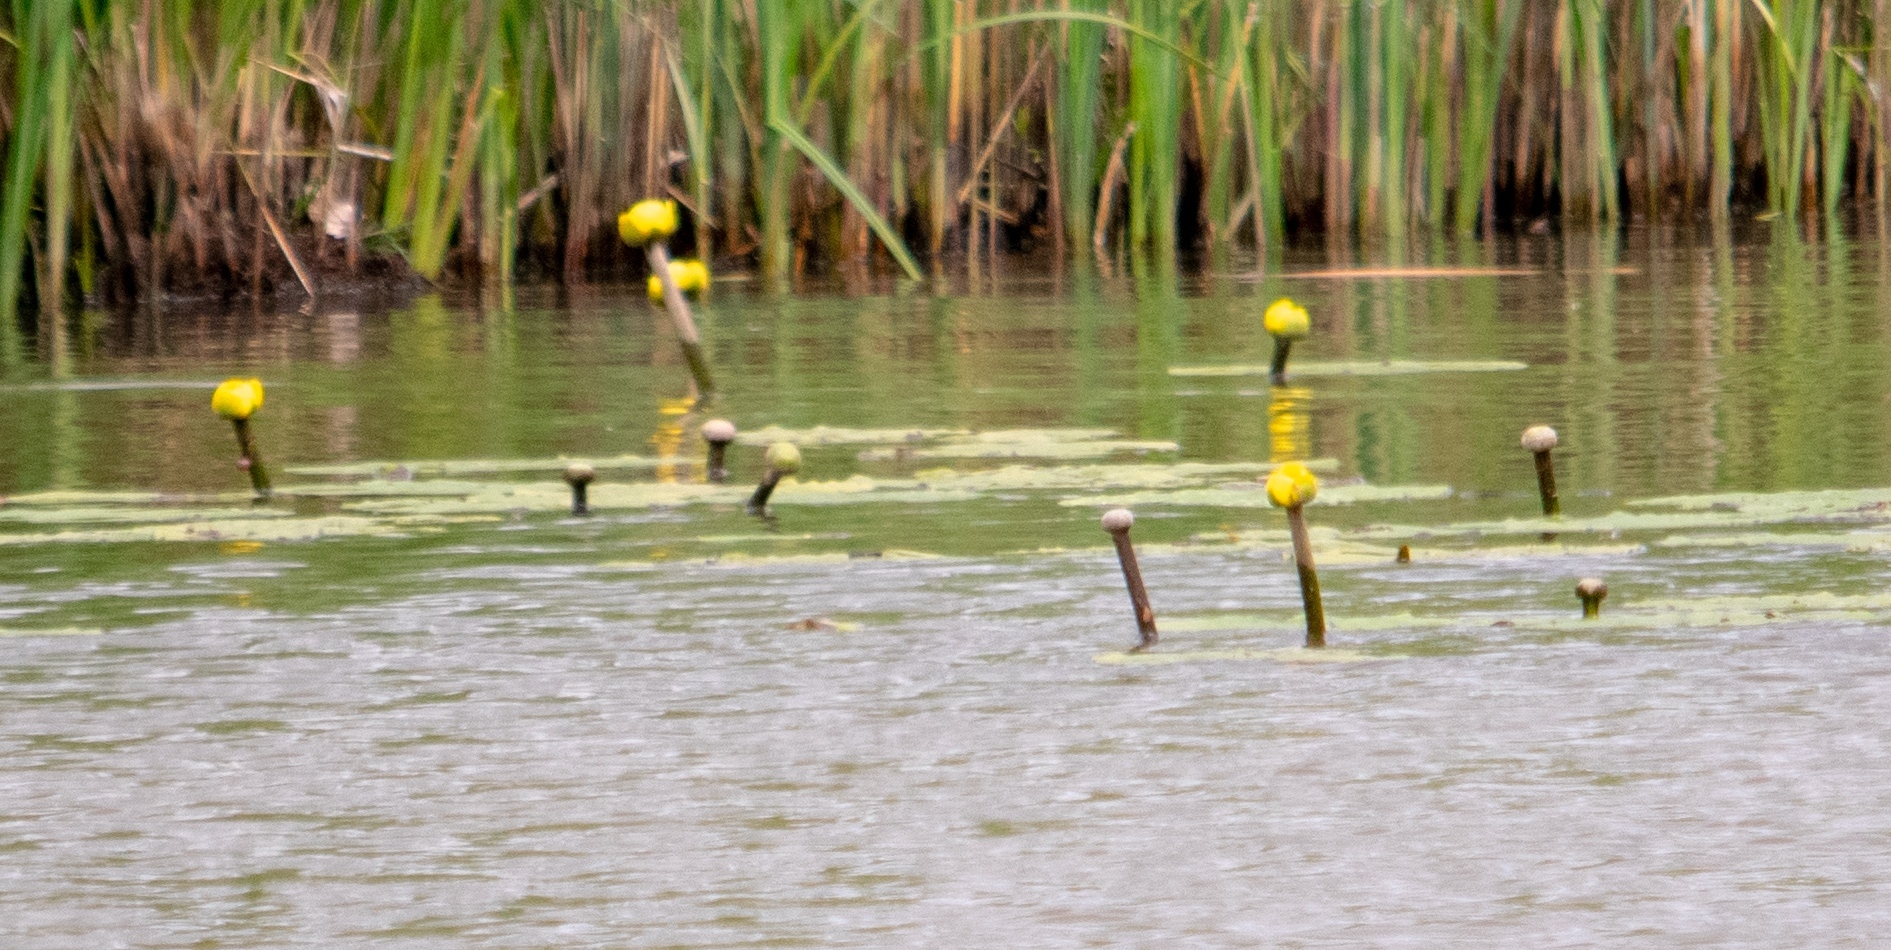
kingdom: Plantae
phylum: Tracheophyta
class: Magnoliopsida
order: Nymphaeales
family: Nymphaeaceae
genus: Nuphar
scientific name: Nuphar lutea
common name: Yellow water-lily
